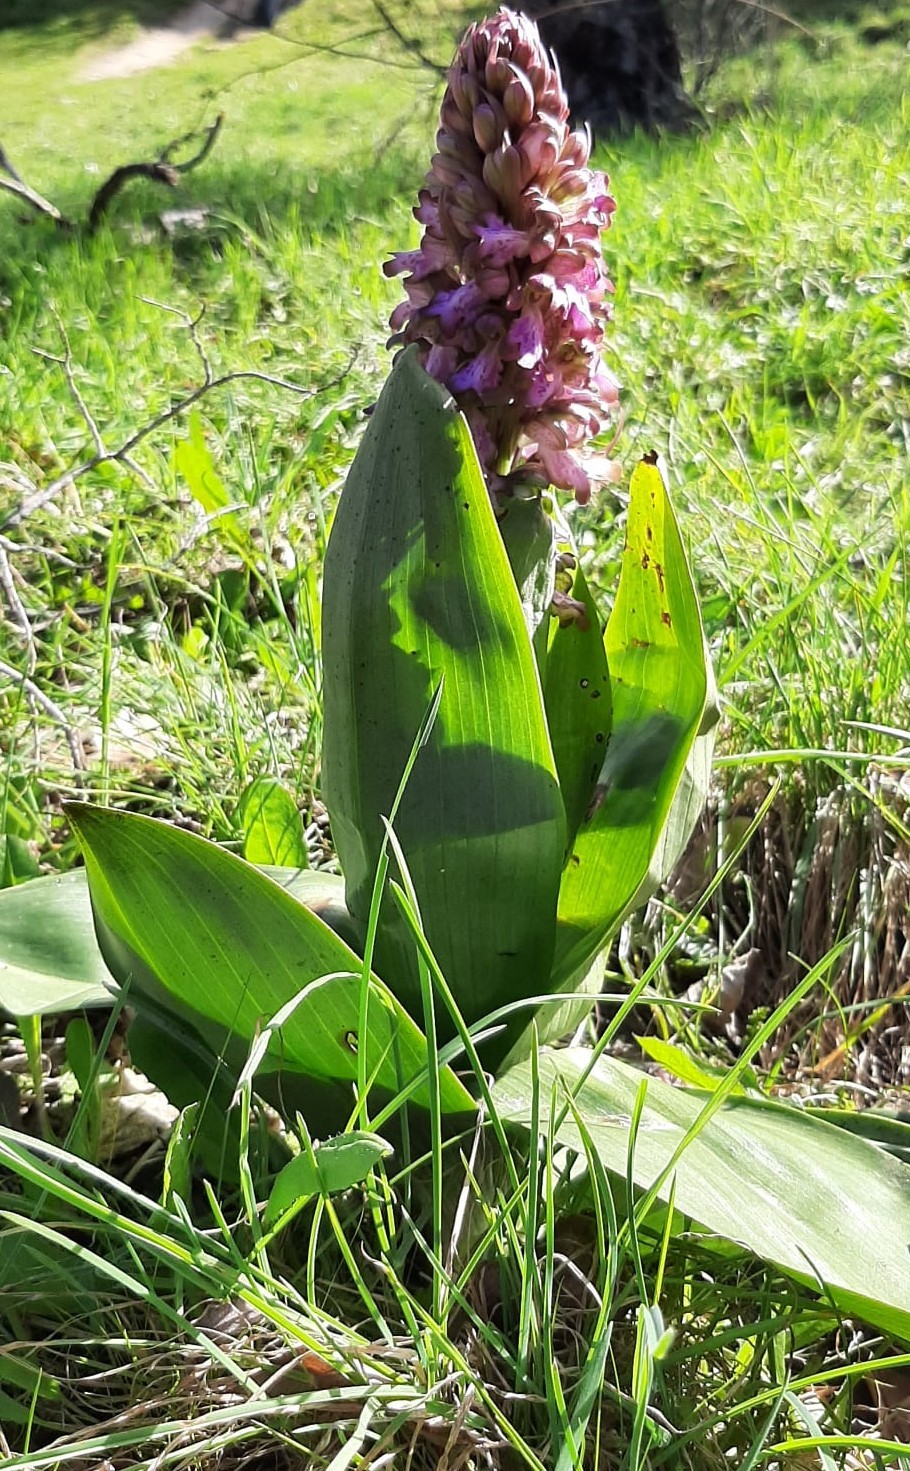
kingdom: Plantae
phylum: Tracheophyta
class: Liliopsida
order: Asparagales
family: Orchidaceae
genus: Himantoglossum
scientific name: Himantoglossum robertianum
